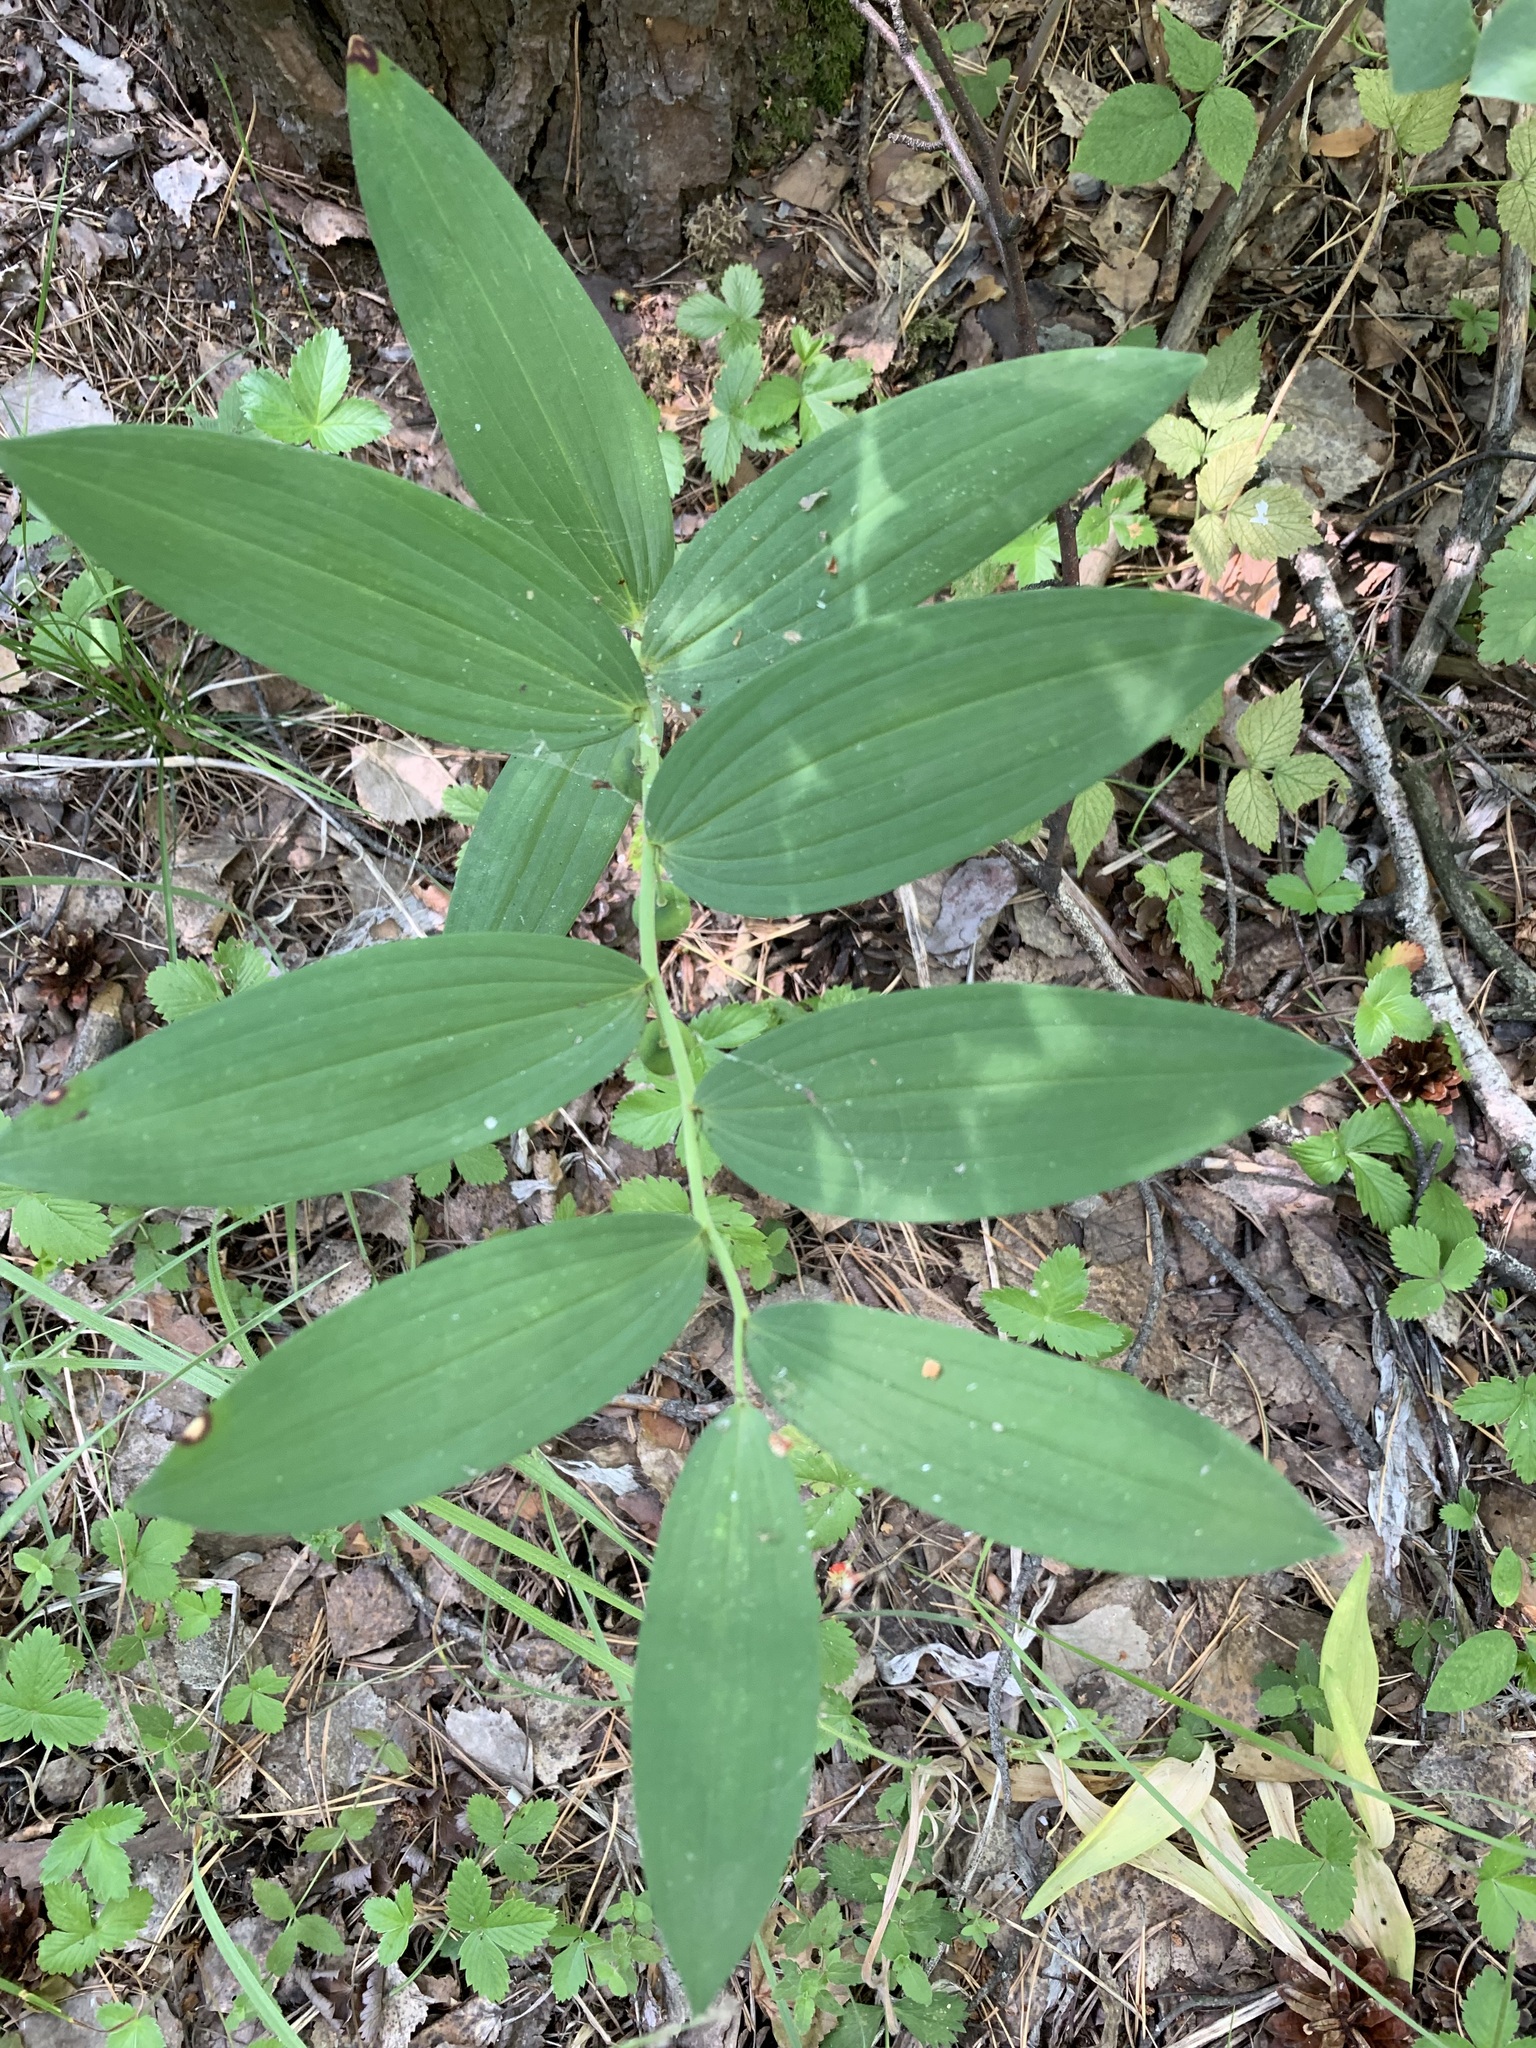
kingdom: Plantae
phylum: Tracheophyta
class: Liliopsida
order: Asparagales
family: Asparagaceae
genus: Polygonatum
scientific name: Polygonatum odoratum
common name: Angular solomon's-seal
